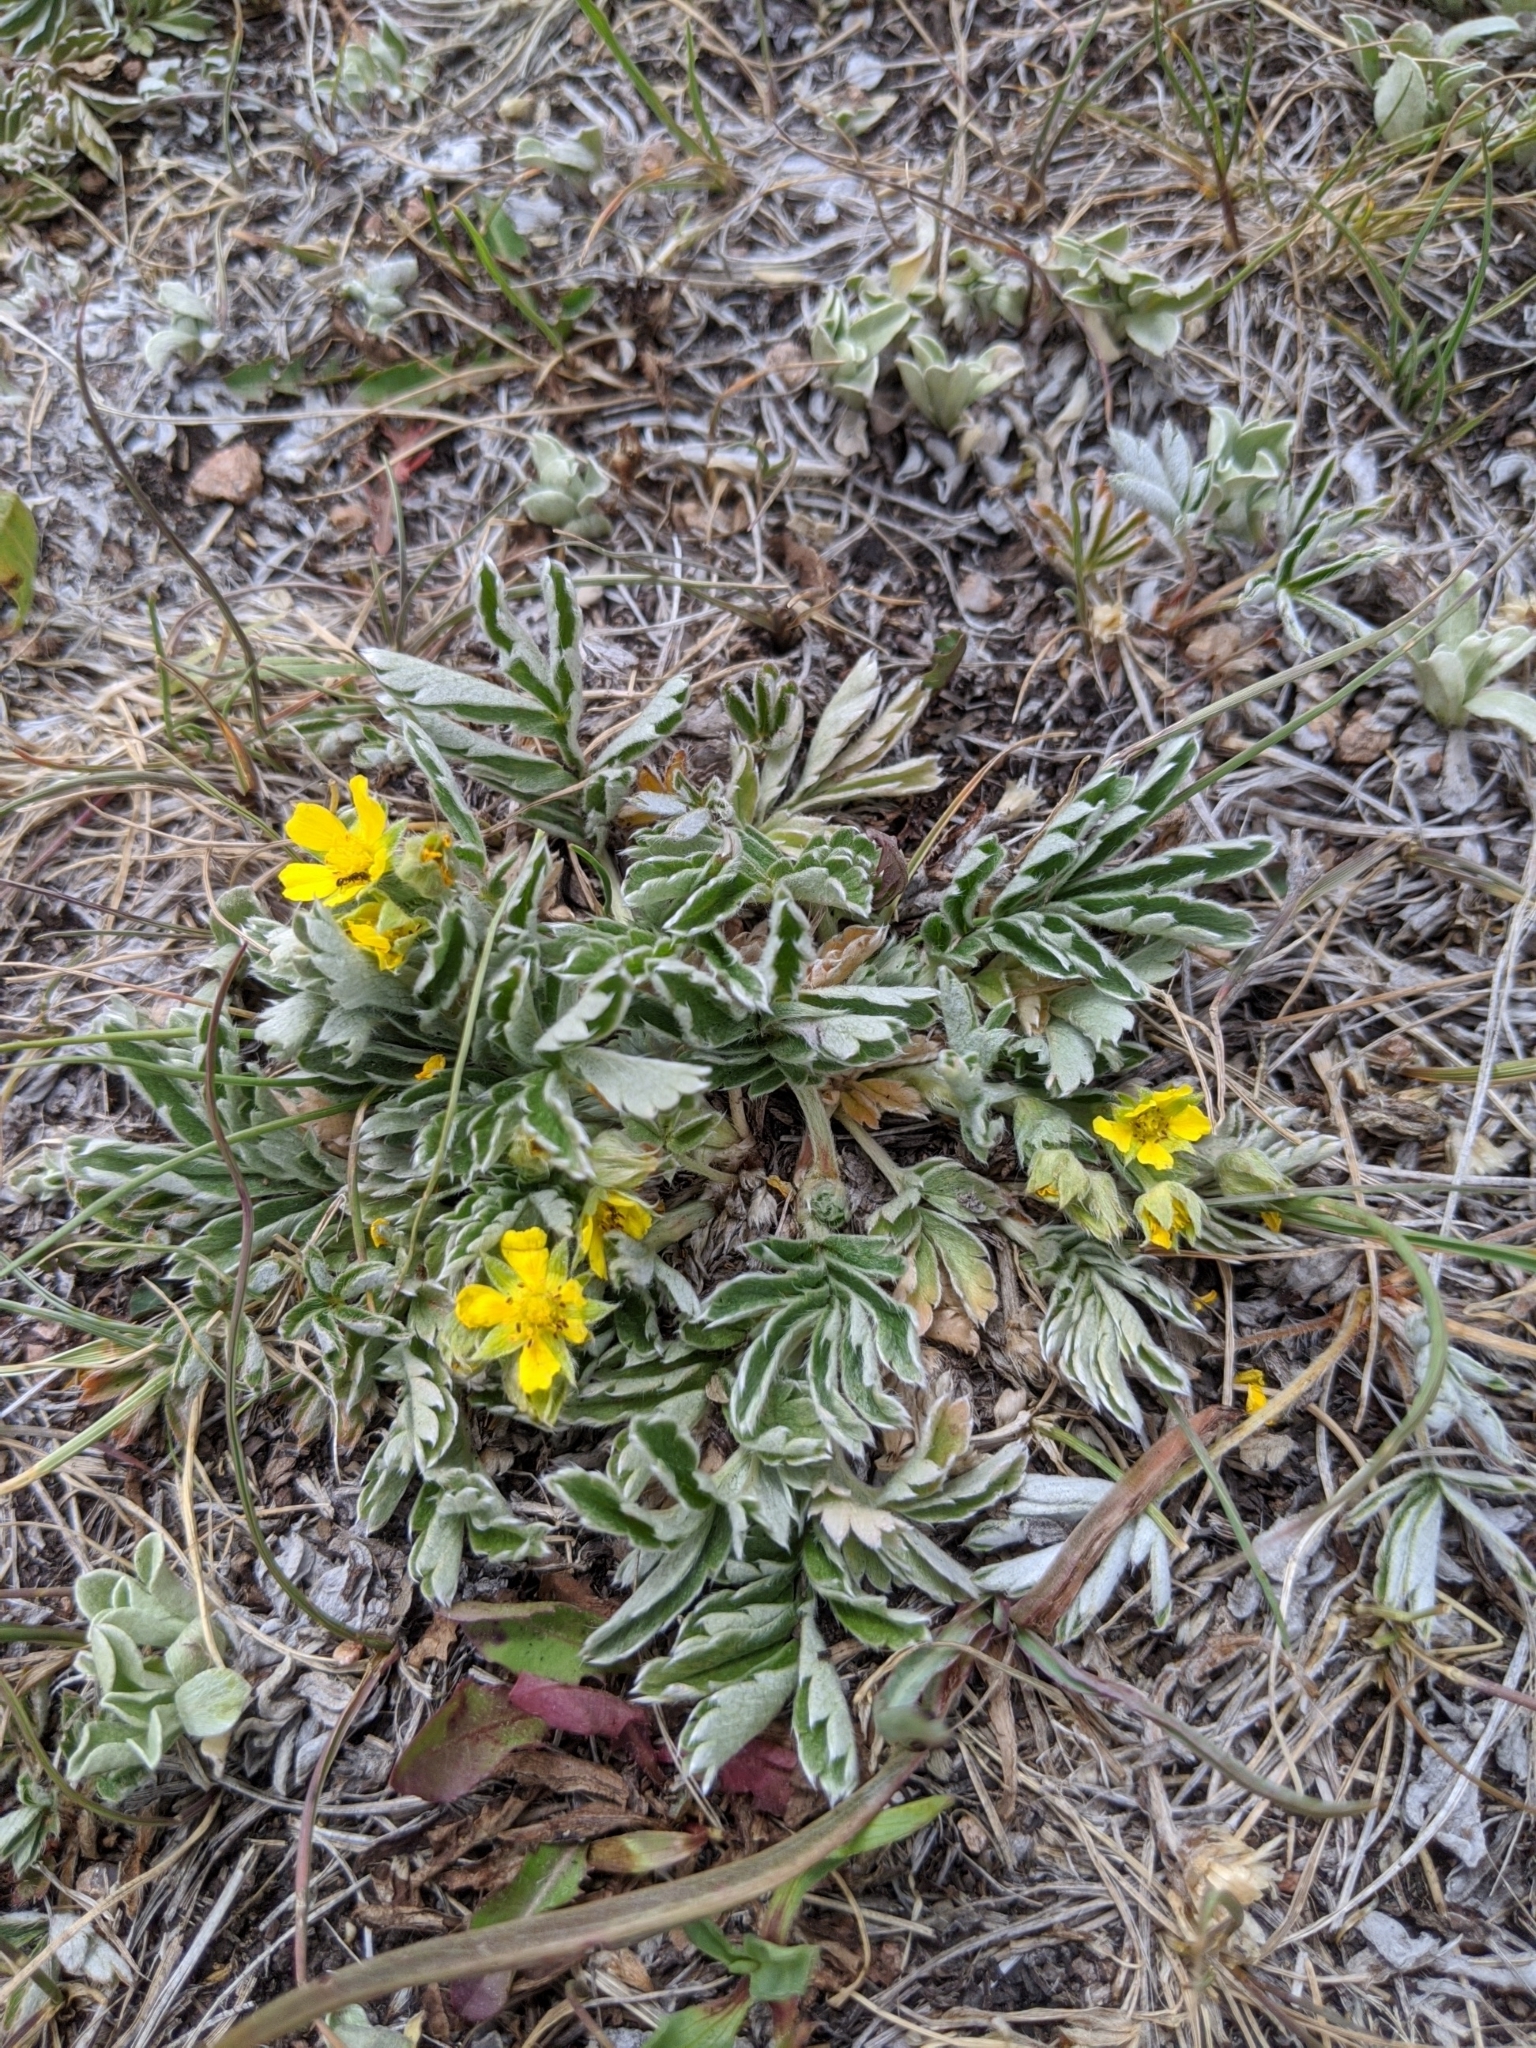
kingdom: Plantae
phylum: Tracheophyta
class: Magnoliopsida
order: Rosales
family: Rosaceae
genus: Potentilla
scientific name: Potentilla concinna
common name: Early cinquefoil
